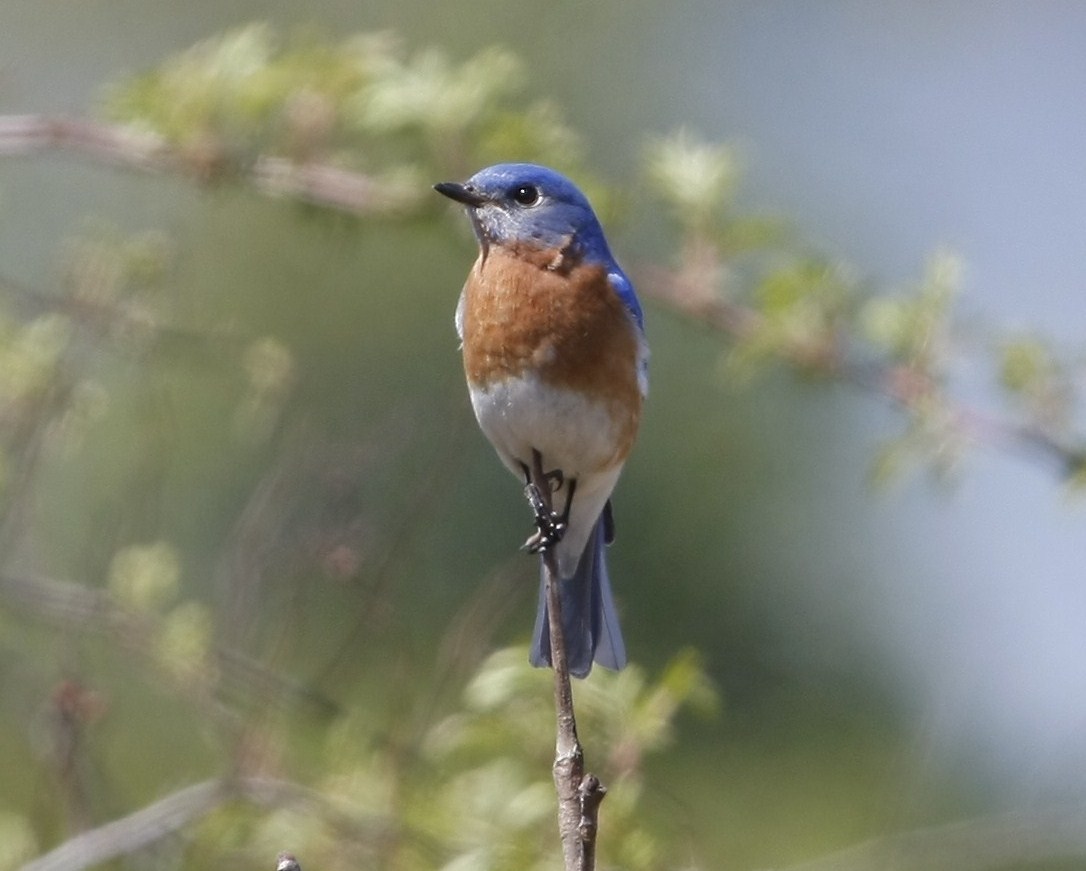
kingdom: Animalia
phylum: Chordata
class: Aves
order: Passeriformes
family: Turdidae
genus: Sialia
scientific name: Sialia sialis
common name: Eastern bluebird
